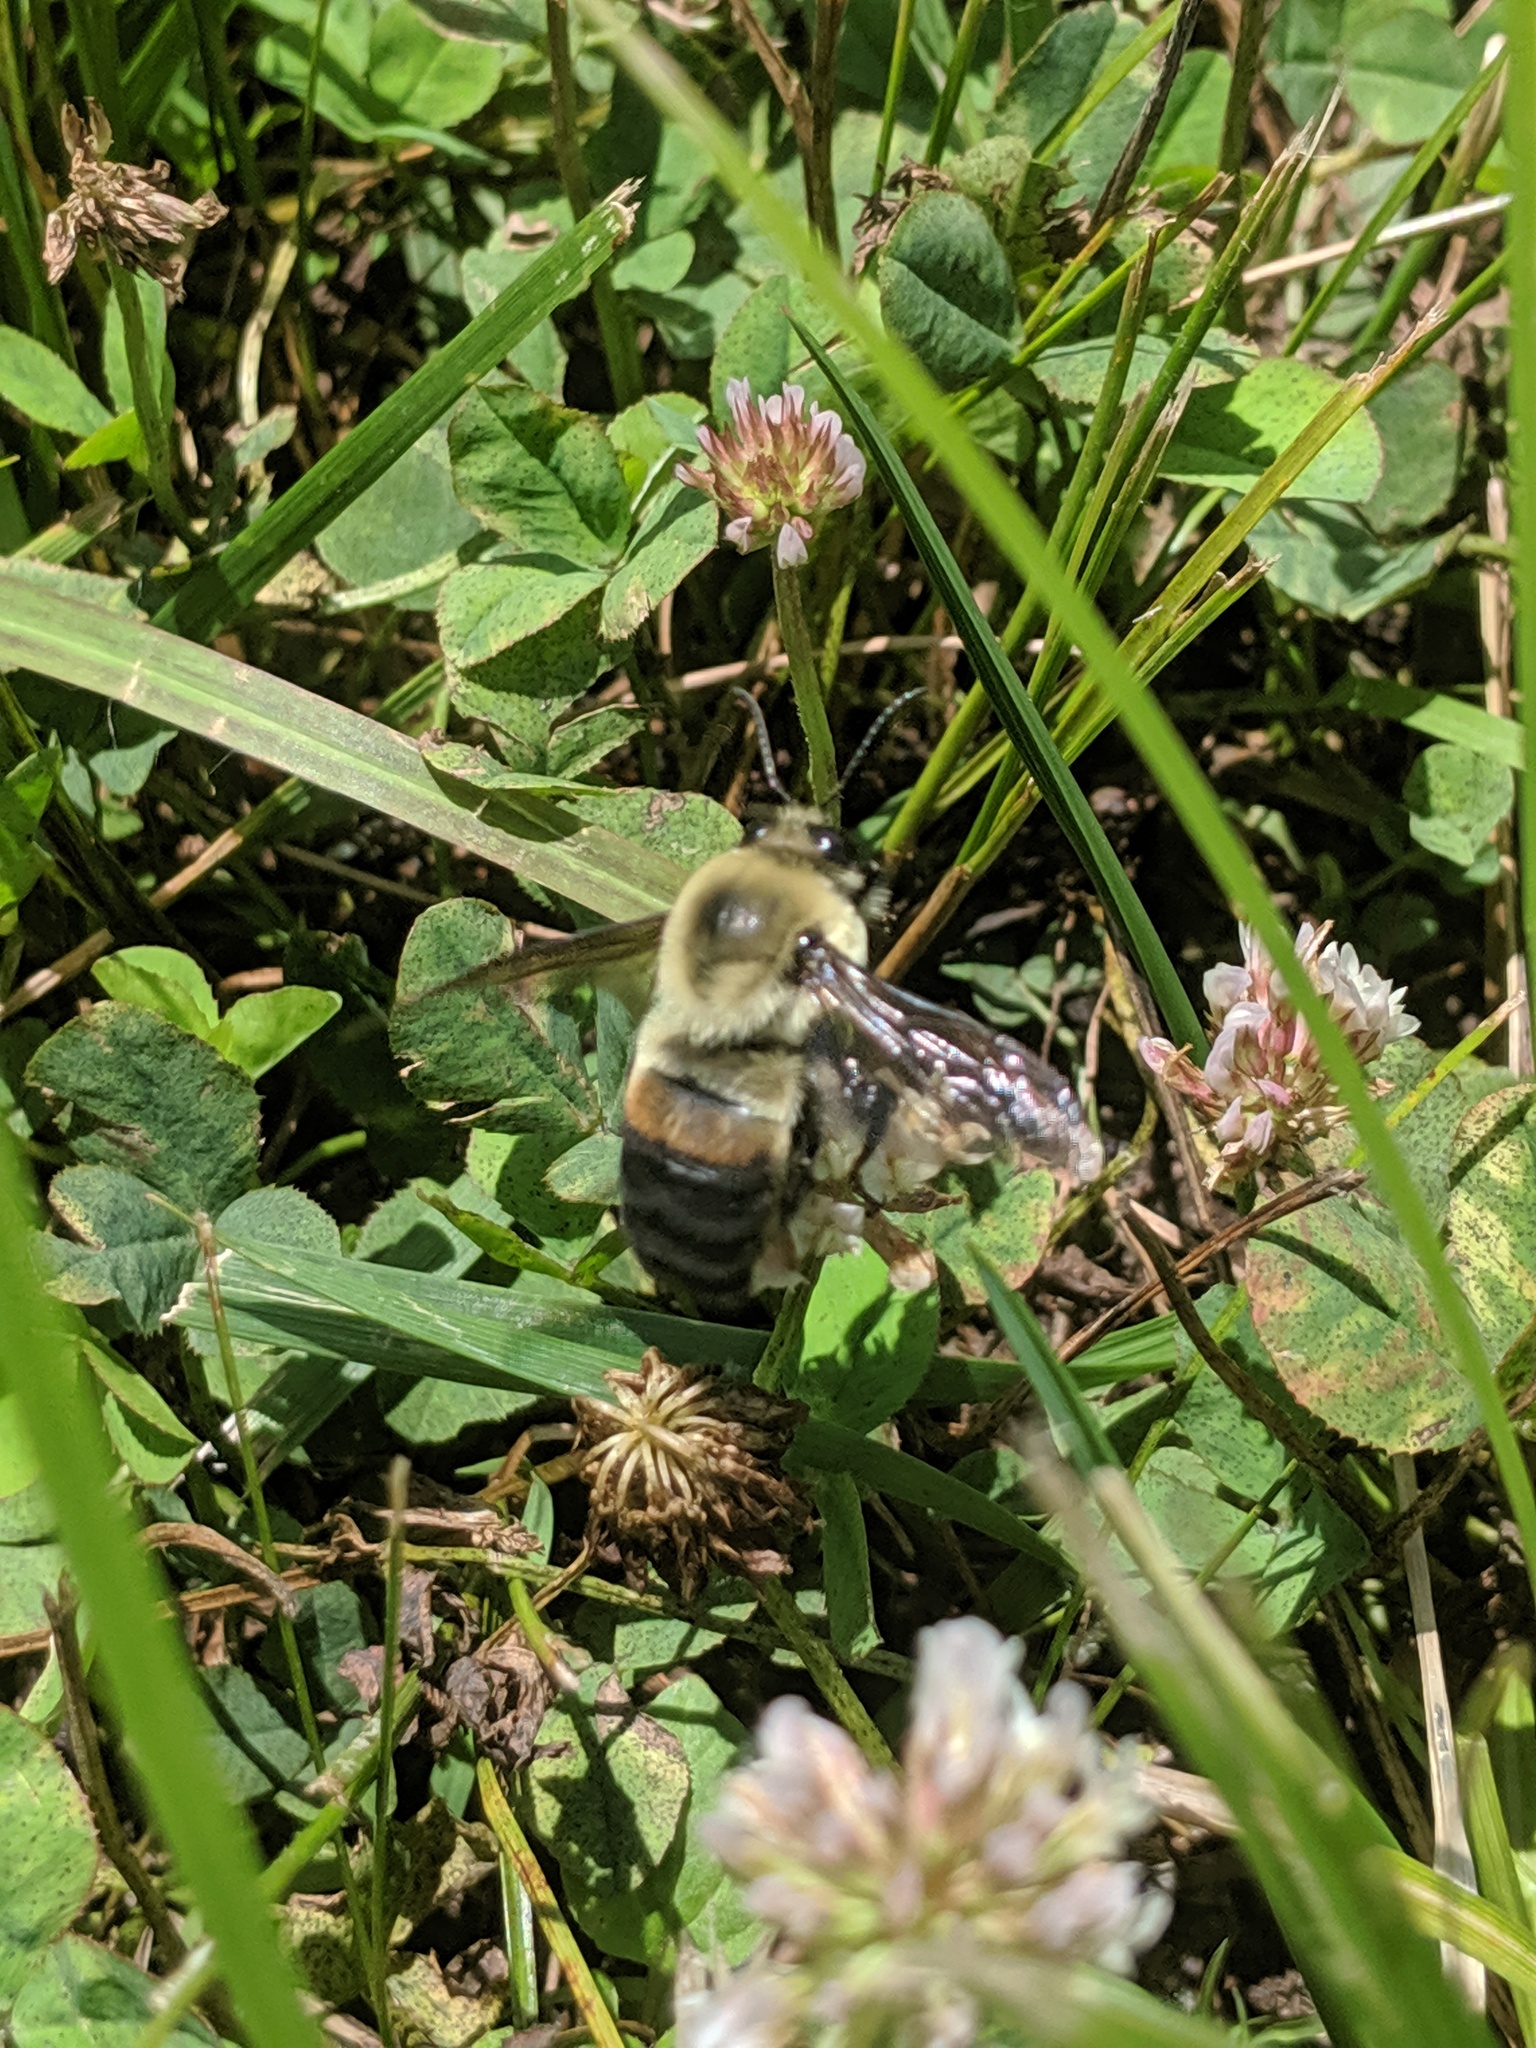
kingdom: Animalia
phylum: Arthropoda
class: Insecta
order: Hymenoptera
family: Apidae
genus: Bombus
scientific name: Bombus griseocollis
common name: Brown-belted bumble bee
